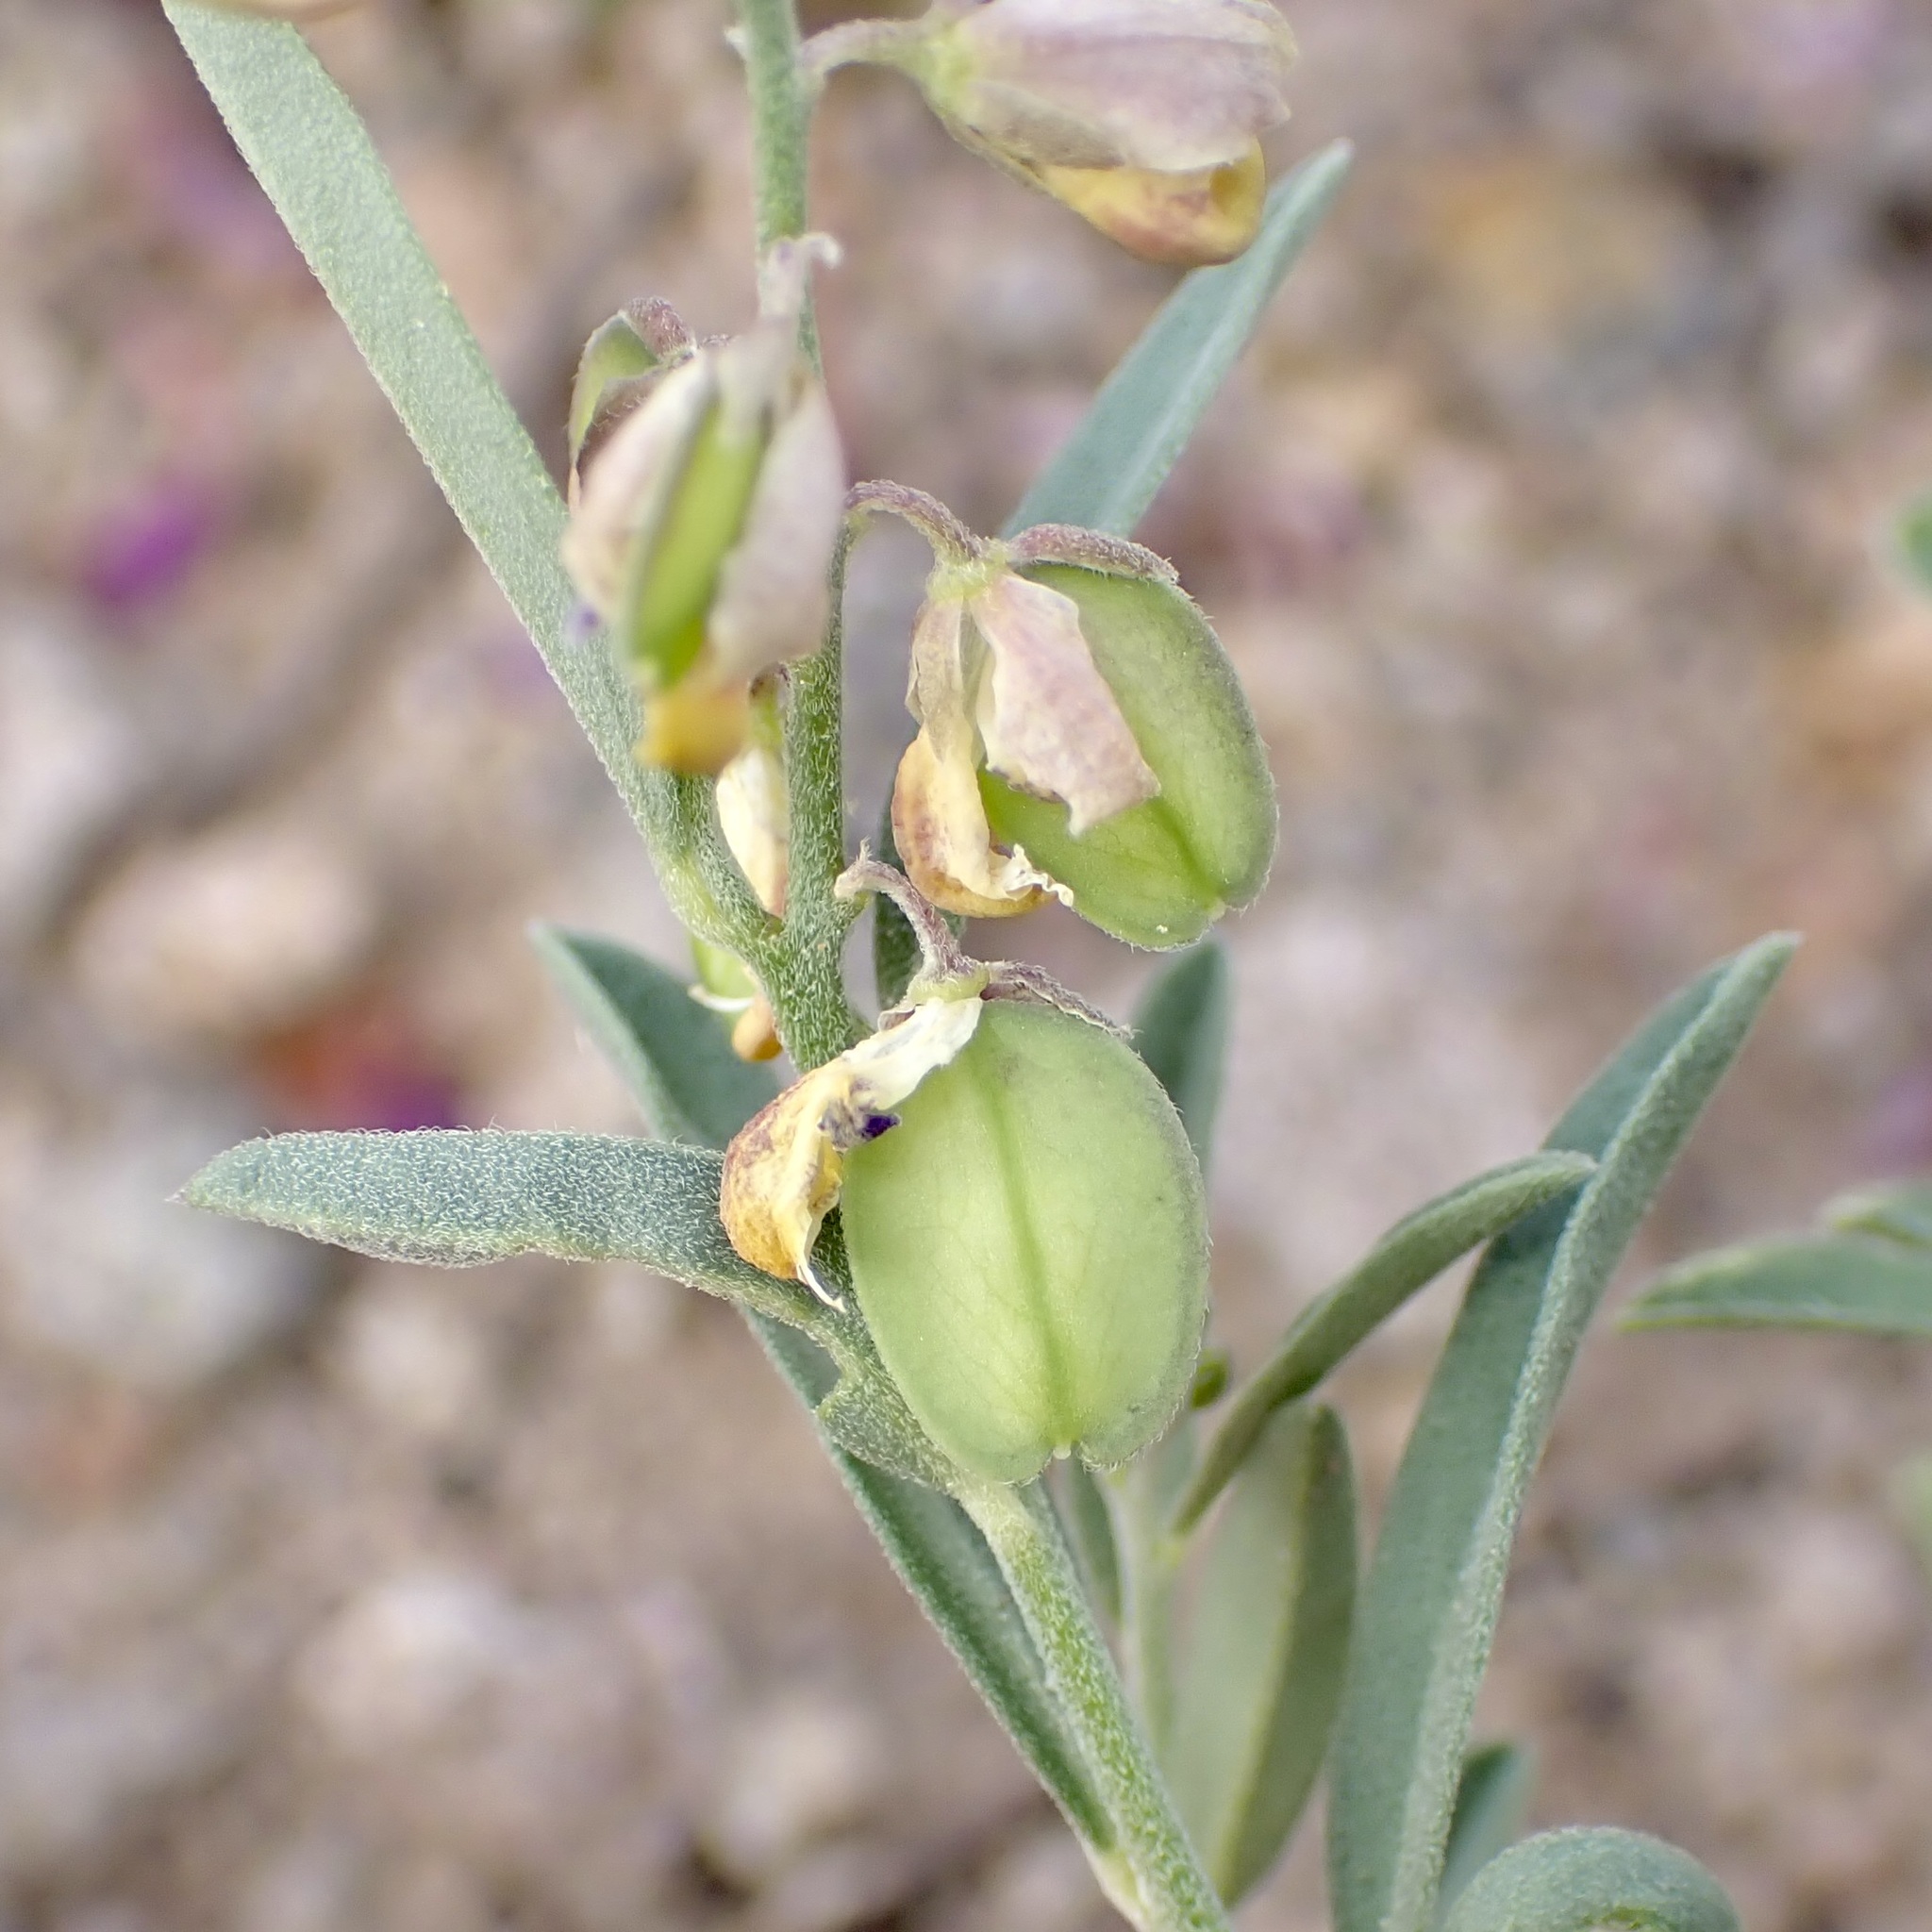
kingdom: Plantae
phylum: Tracheophyta
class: Magnoliopsida
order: Fabales
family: Polygalaceae
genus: Hebecarpa
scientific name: Hebecarpa barbeyana
